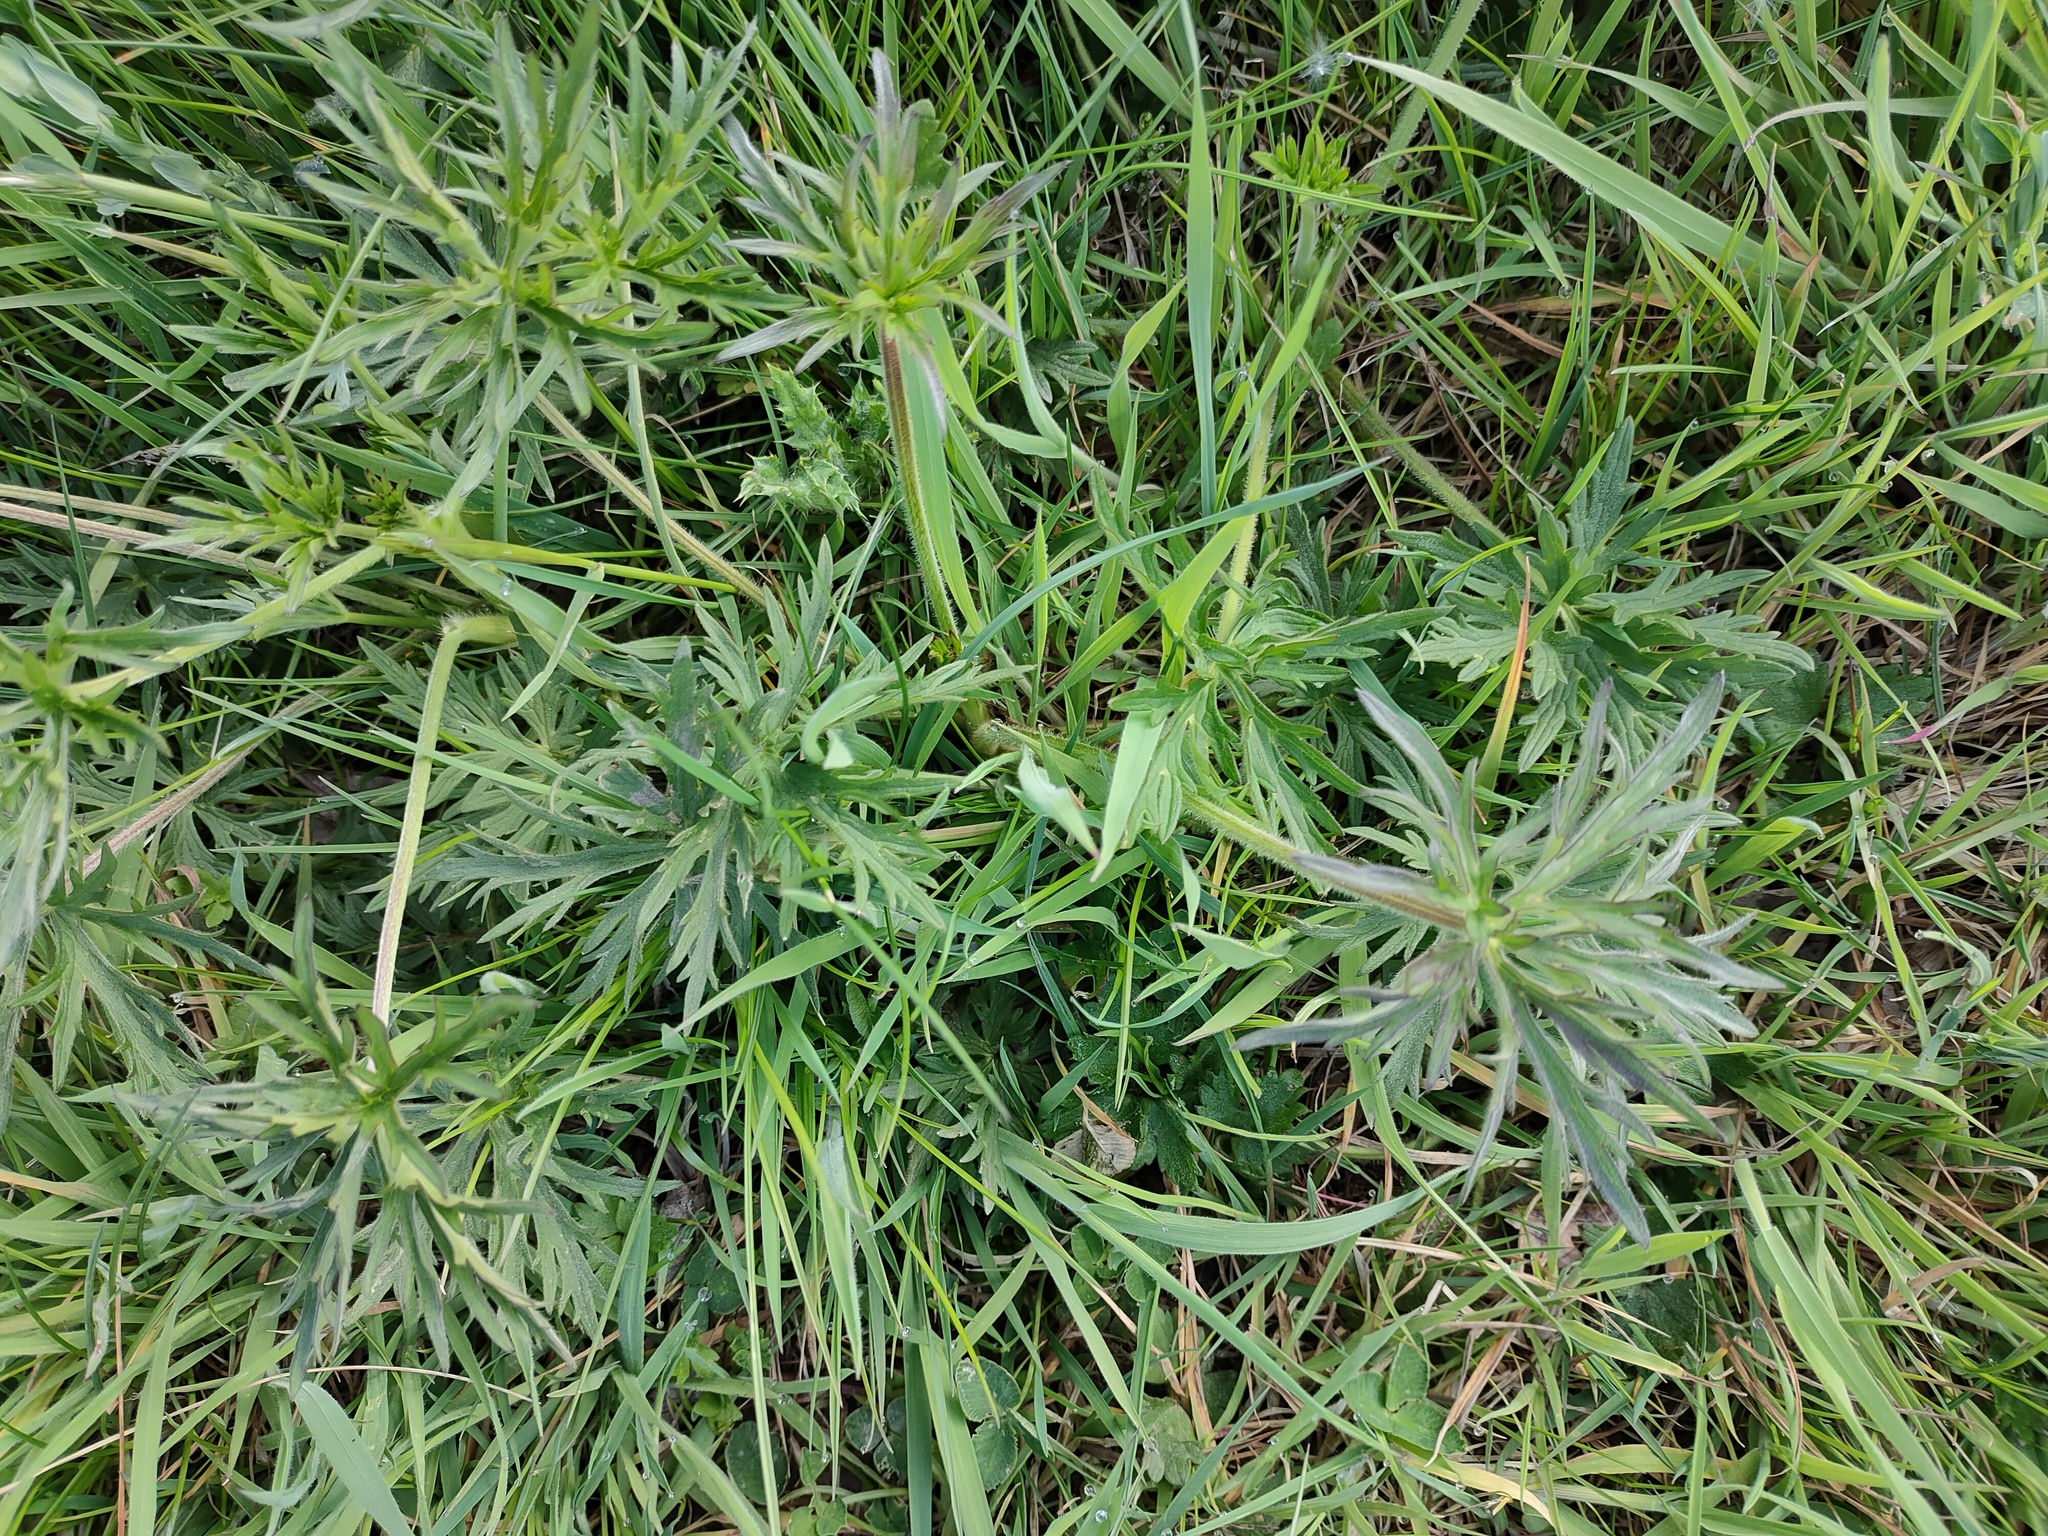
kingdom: Plantae
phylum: Tracheophyta
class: Magnoliopsida
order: Ranunculales
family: Ranunculaceae
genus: Ranunculus
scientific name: Ranunculus acris
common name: Meadow buttercup
